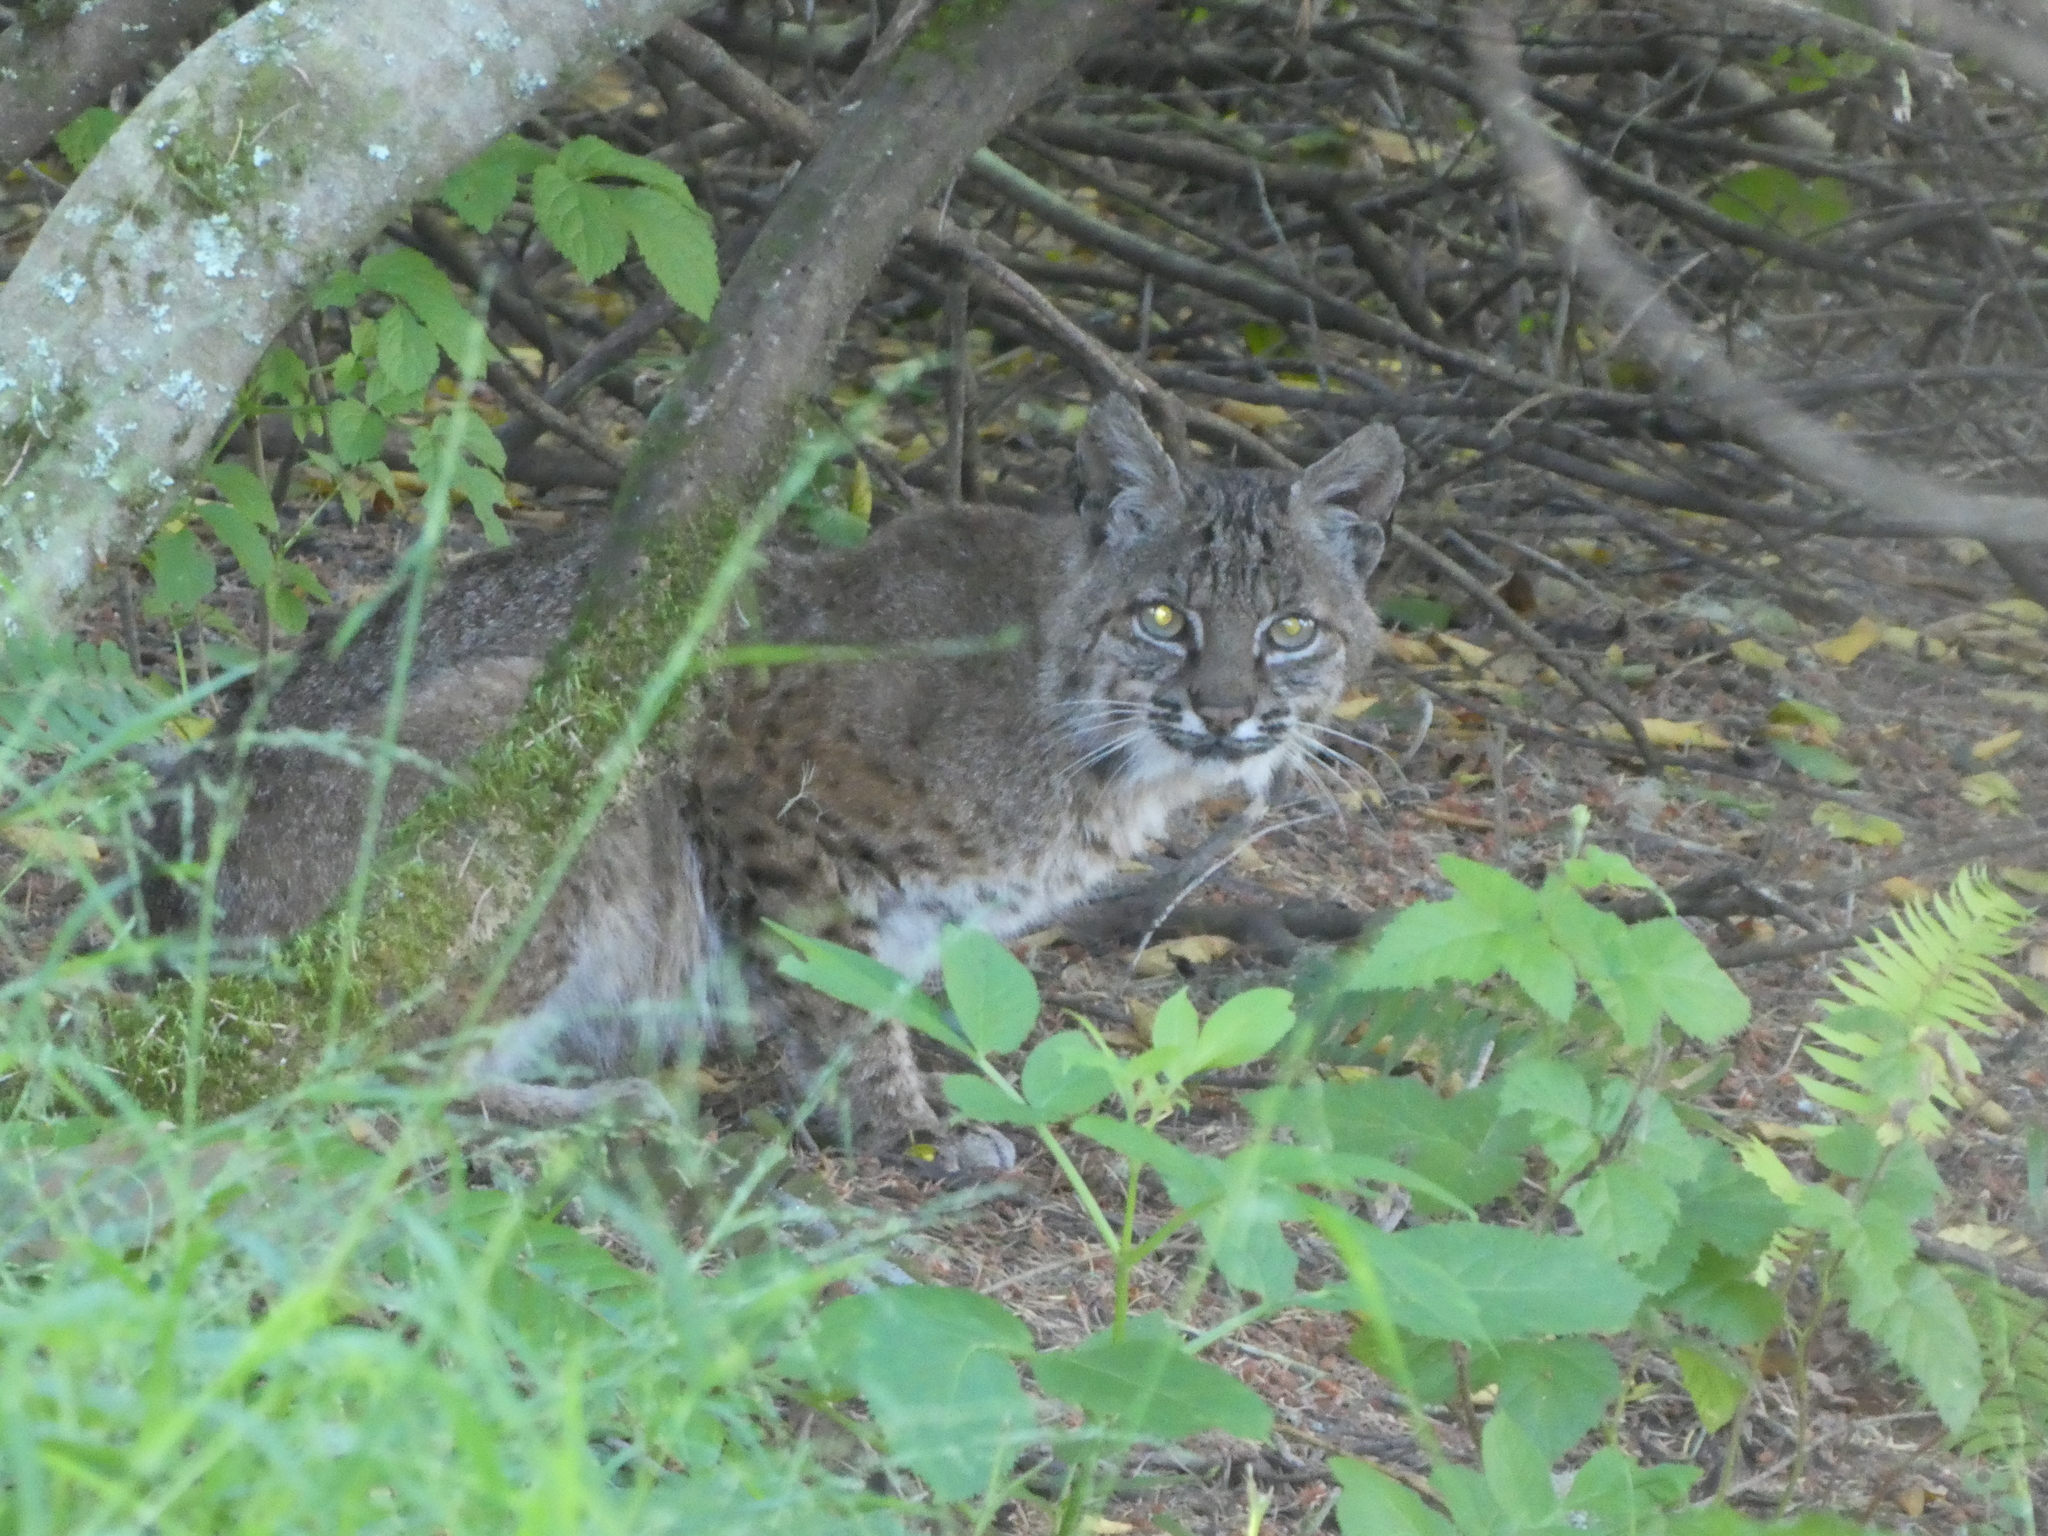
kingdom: Animalia
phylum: Chordata
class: Mammalia
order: Carnivora
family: Felidae
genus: Lynx
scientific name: Lynx rufus
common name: Bobcat
